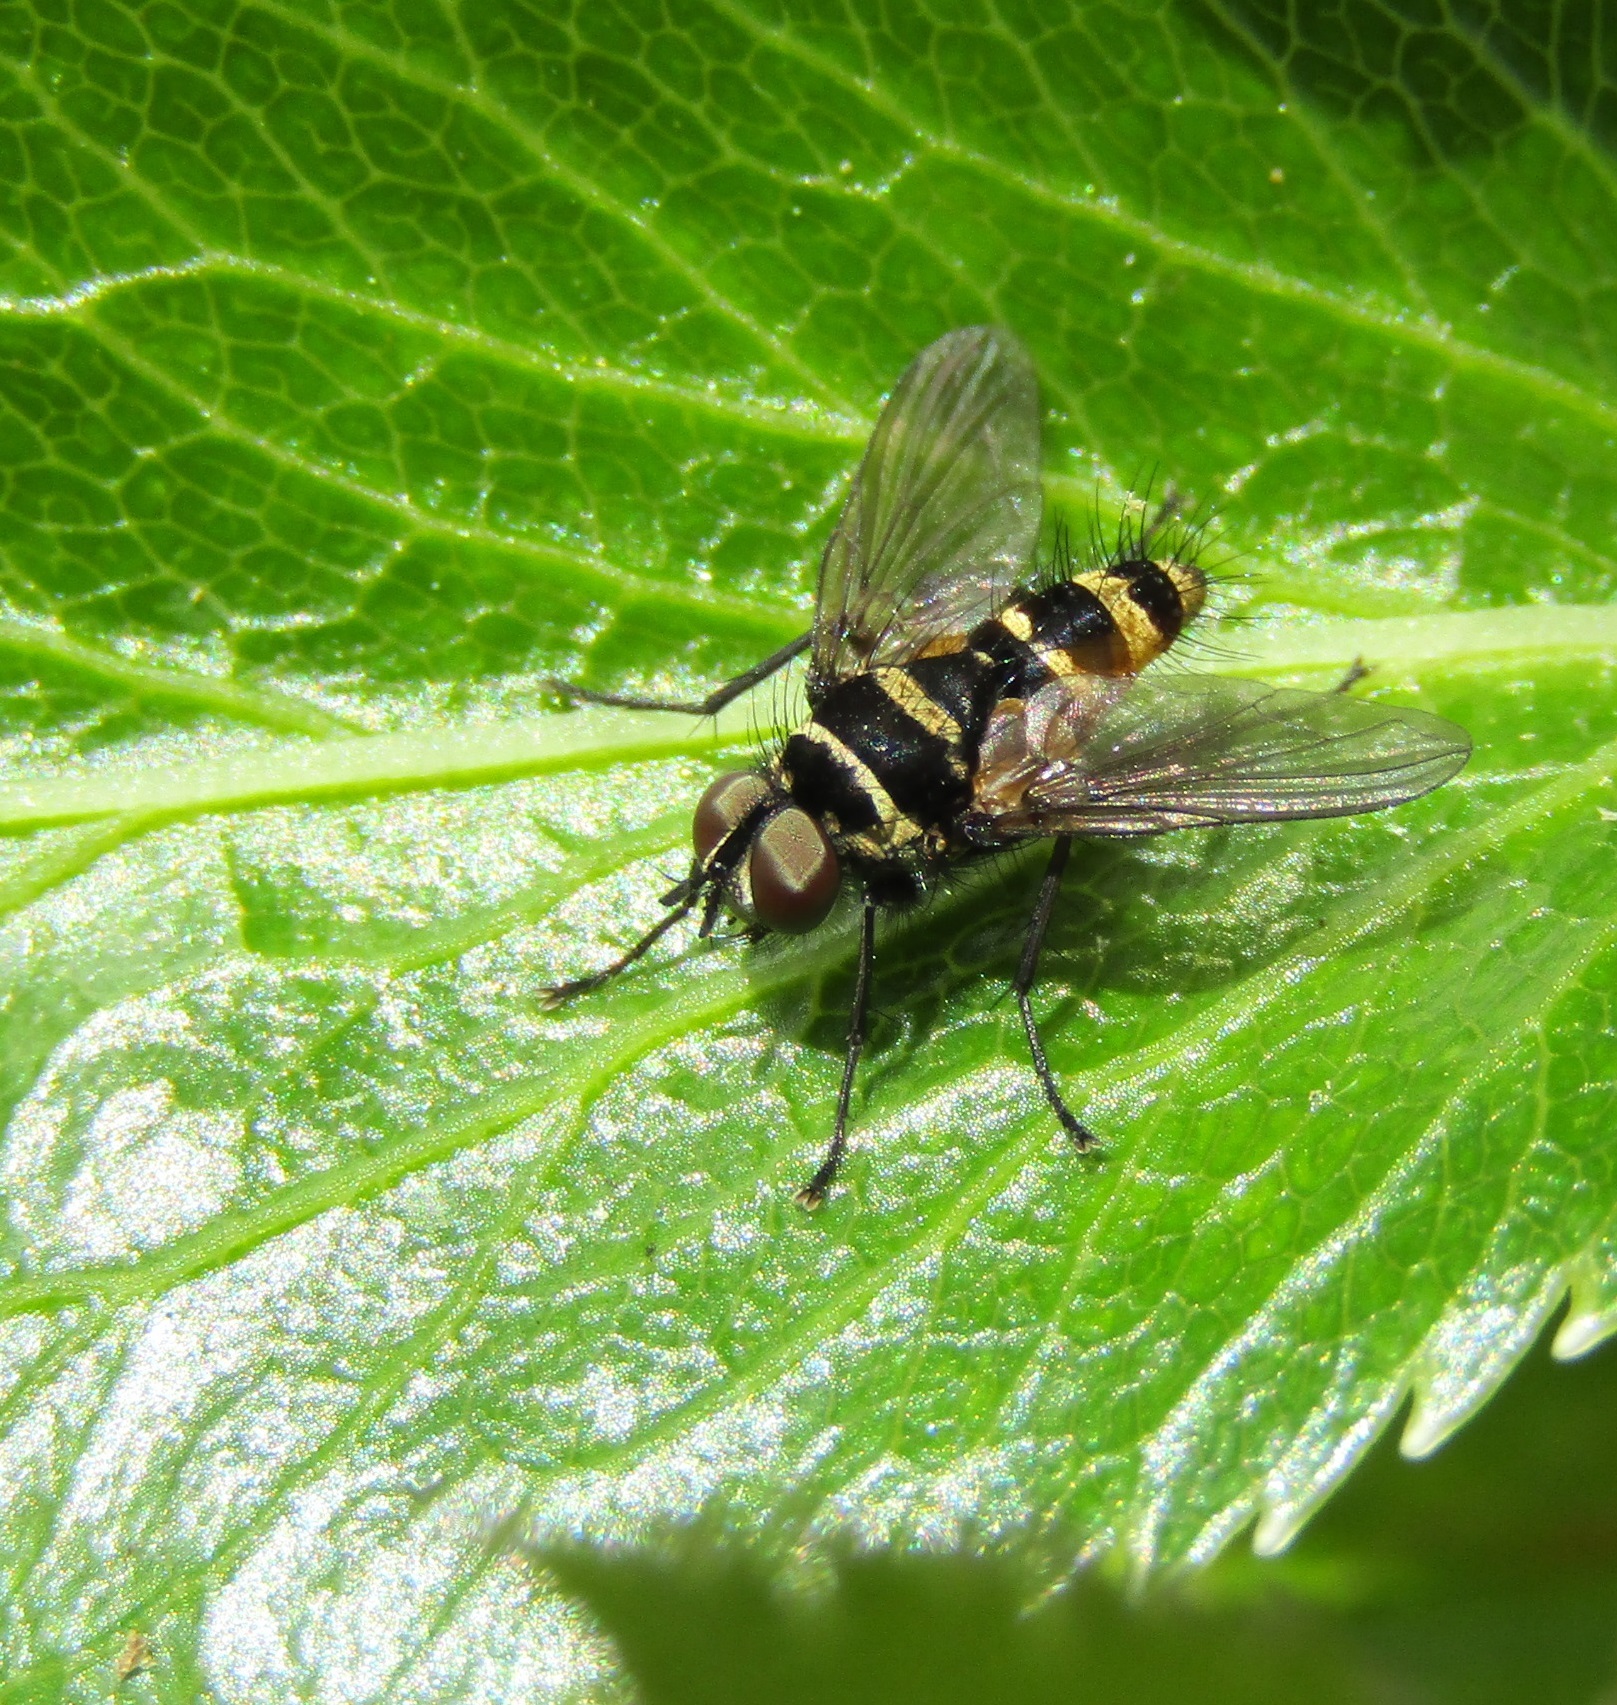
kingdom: Animalia
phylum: Arthropoda
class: Insecta
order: Diptera
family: Tachinidae
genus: Trigonospila
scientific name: Trigonospila brevifacies
